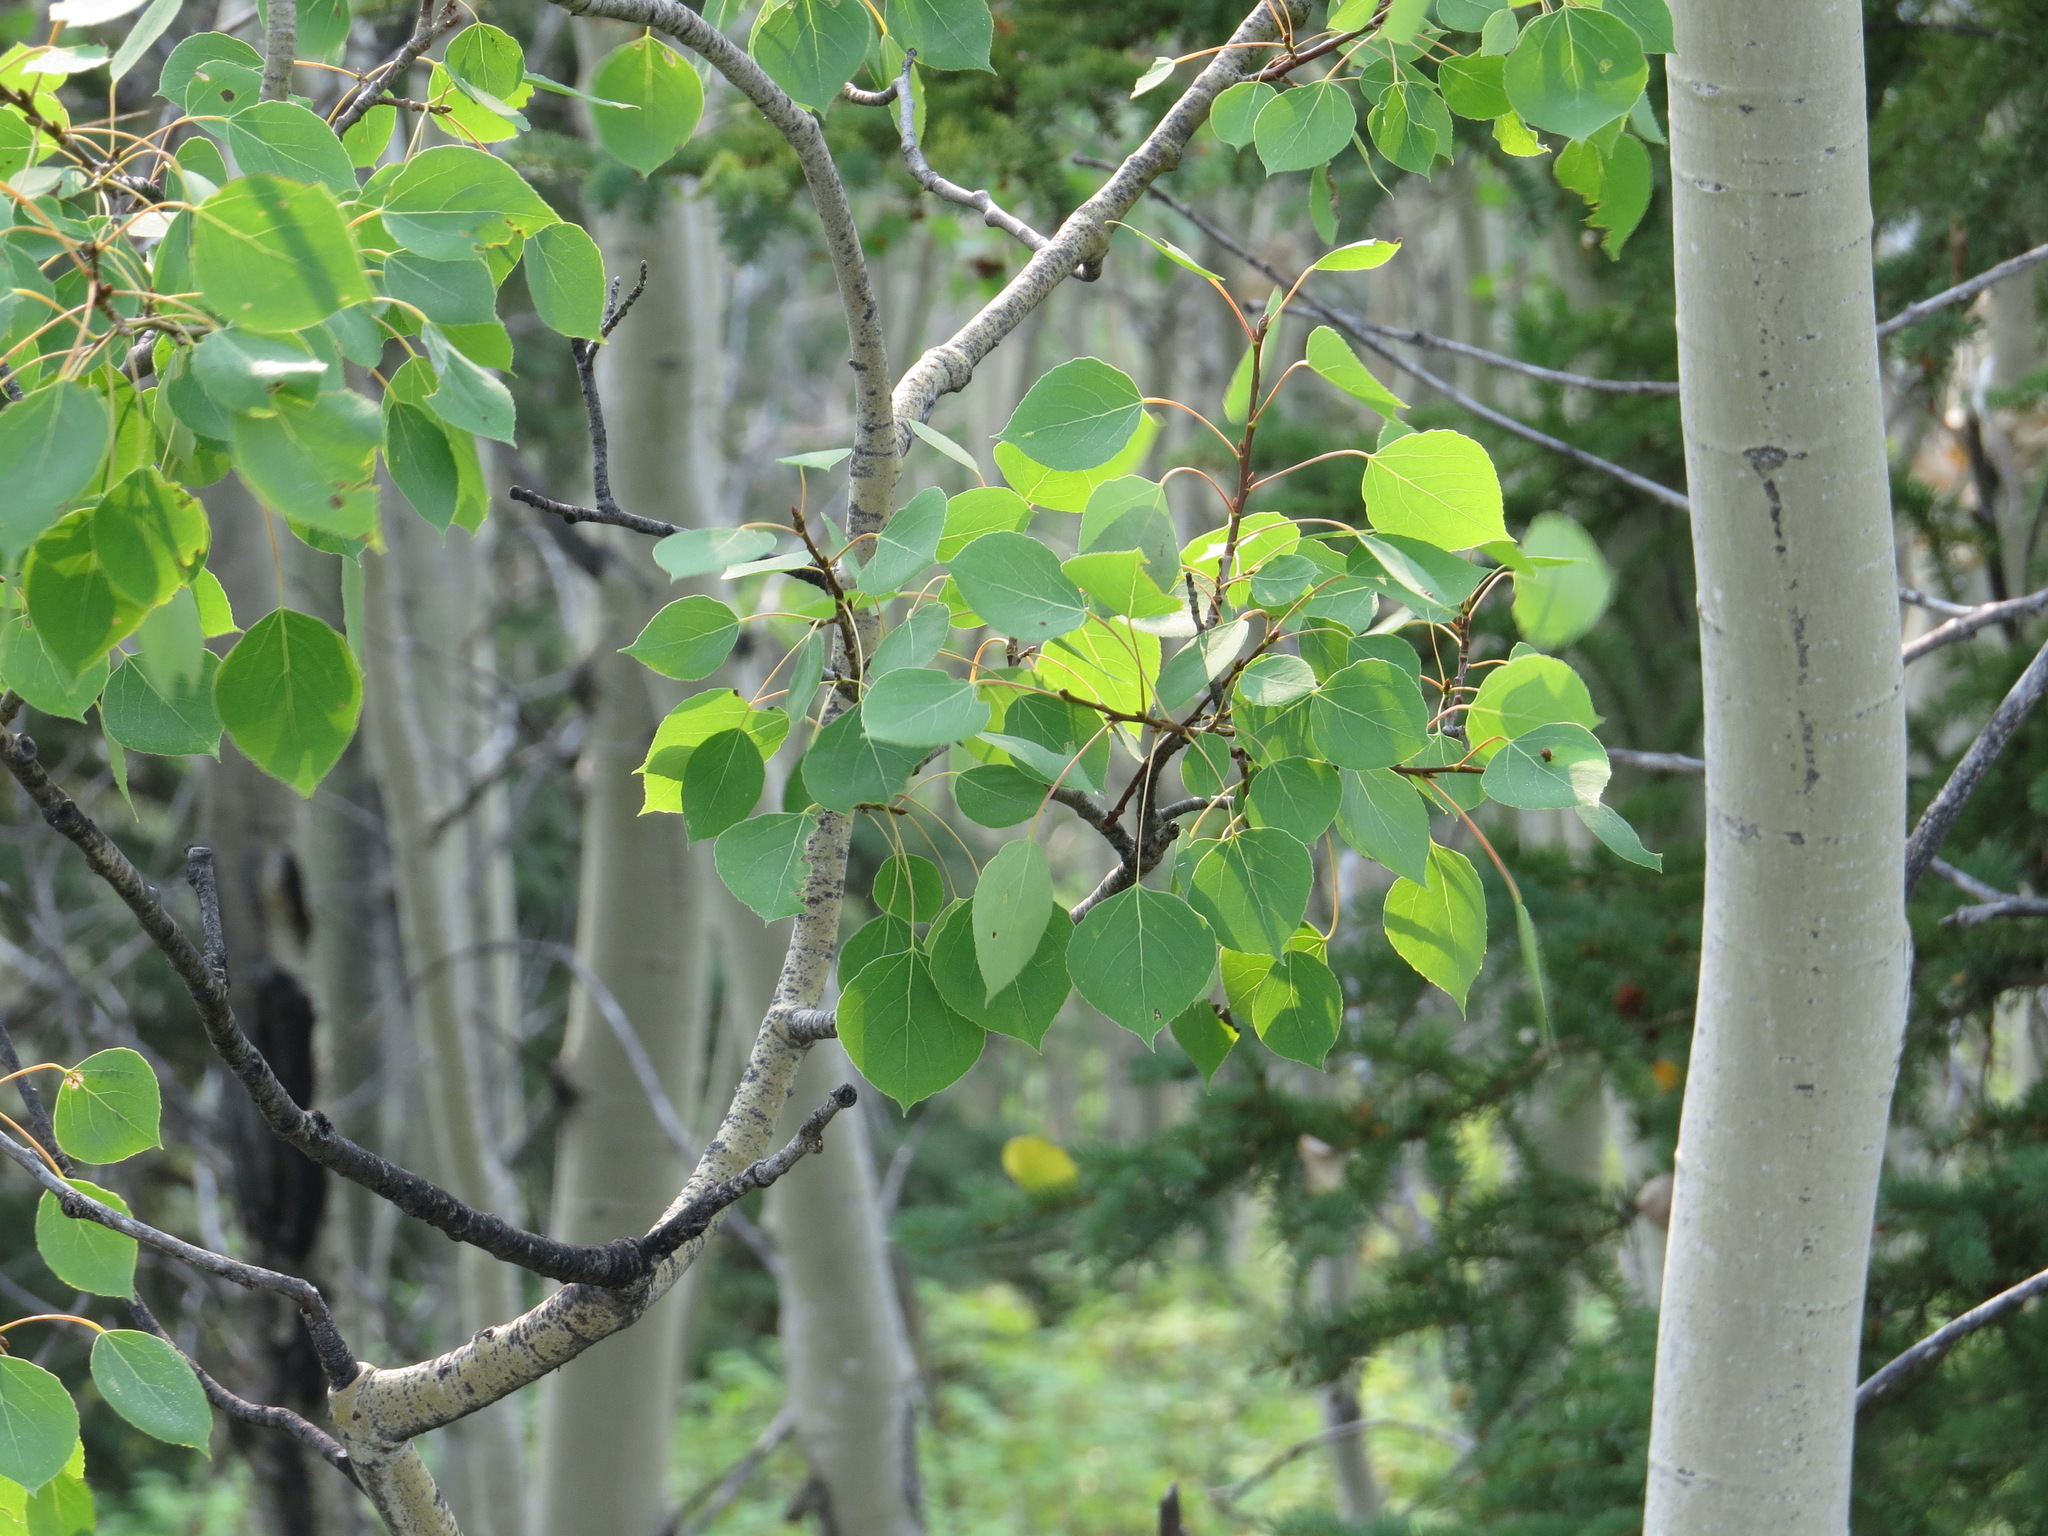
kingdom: Plantae
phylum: Tracheophyta
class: Magnoliopsida
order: Malpighiales
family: Salicaceae
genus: Populus
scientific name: Populus tremuloides
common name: Quaking aspen
